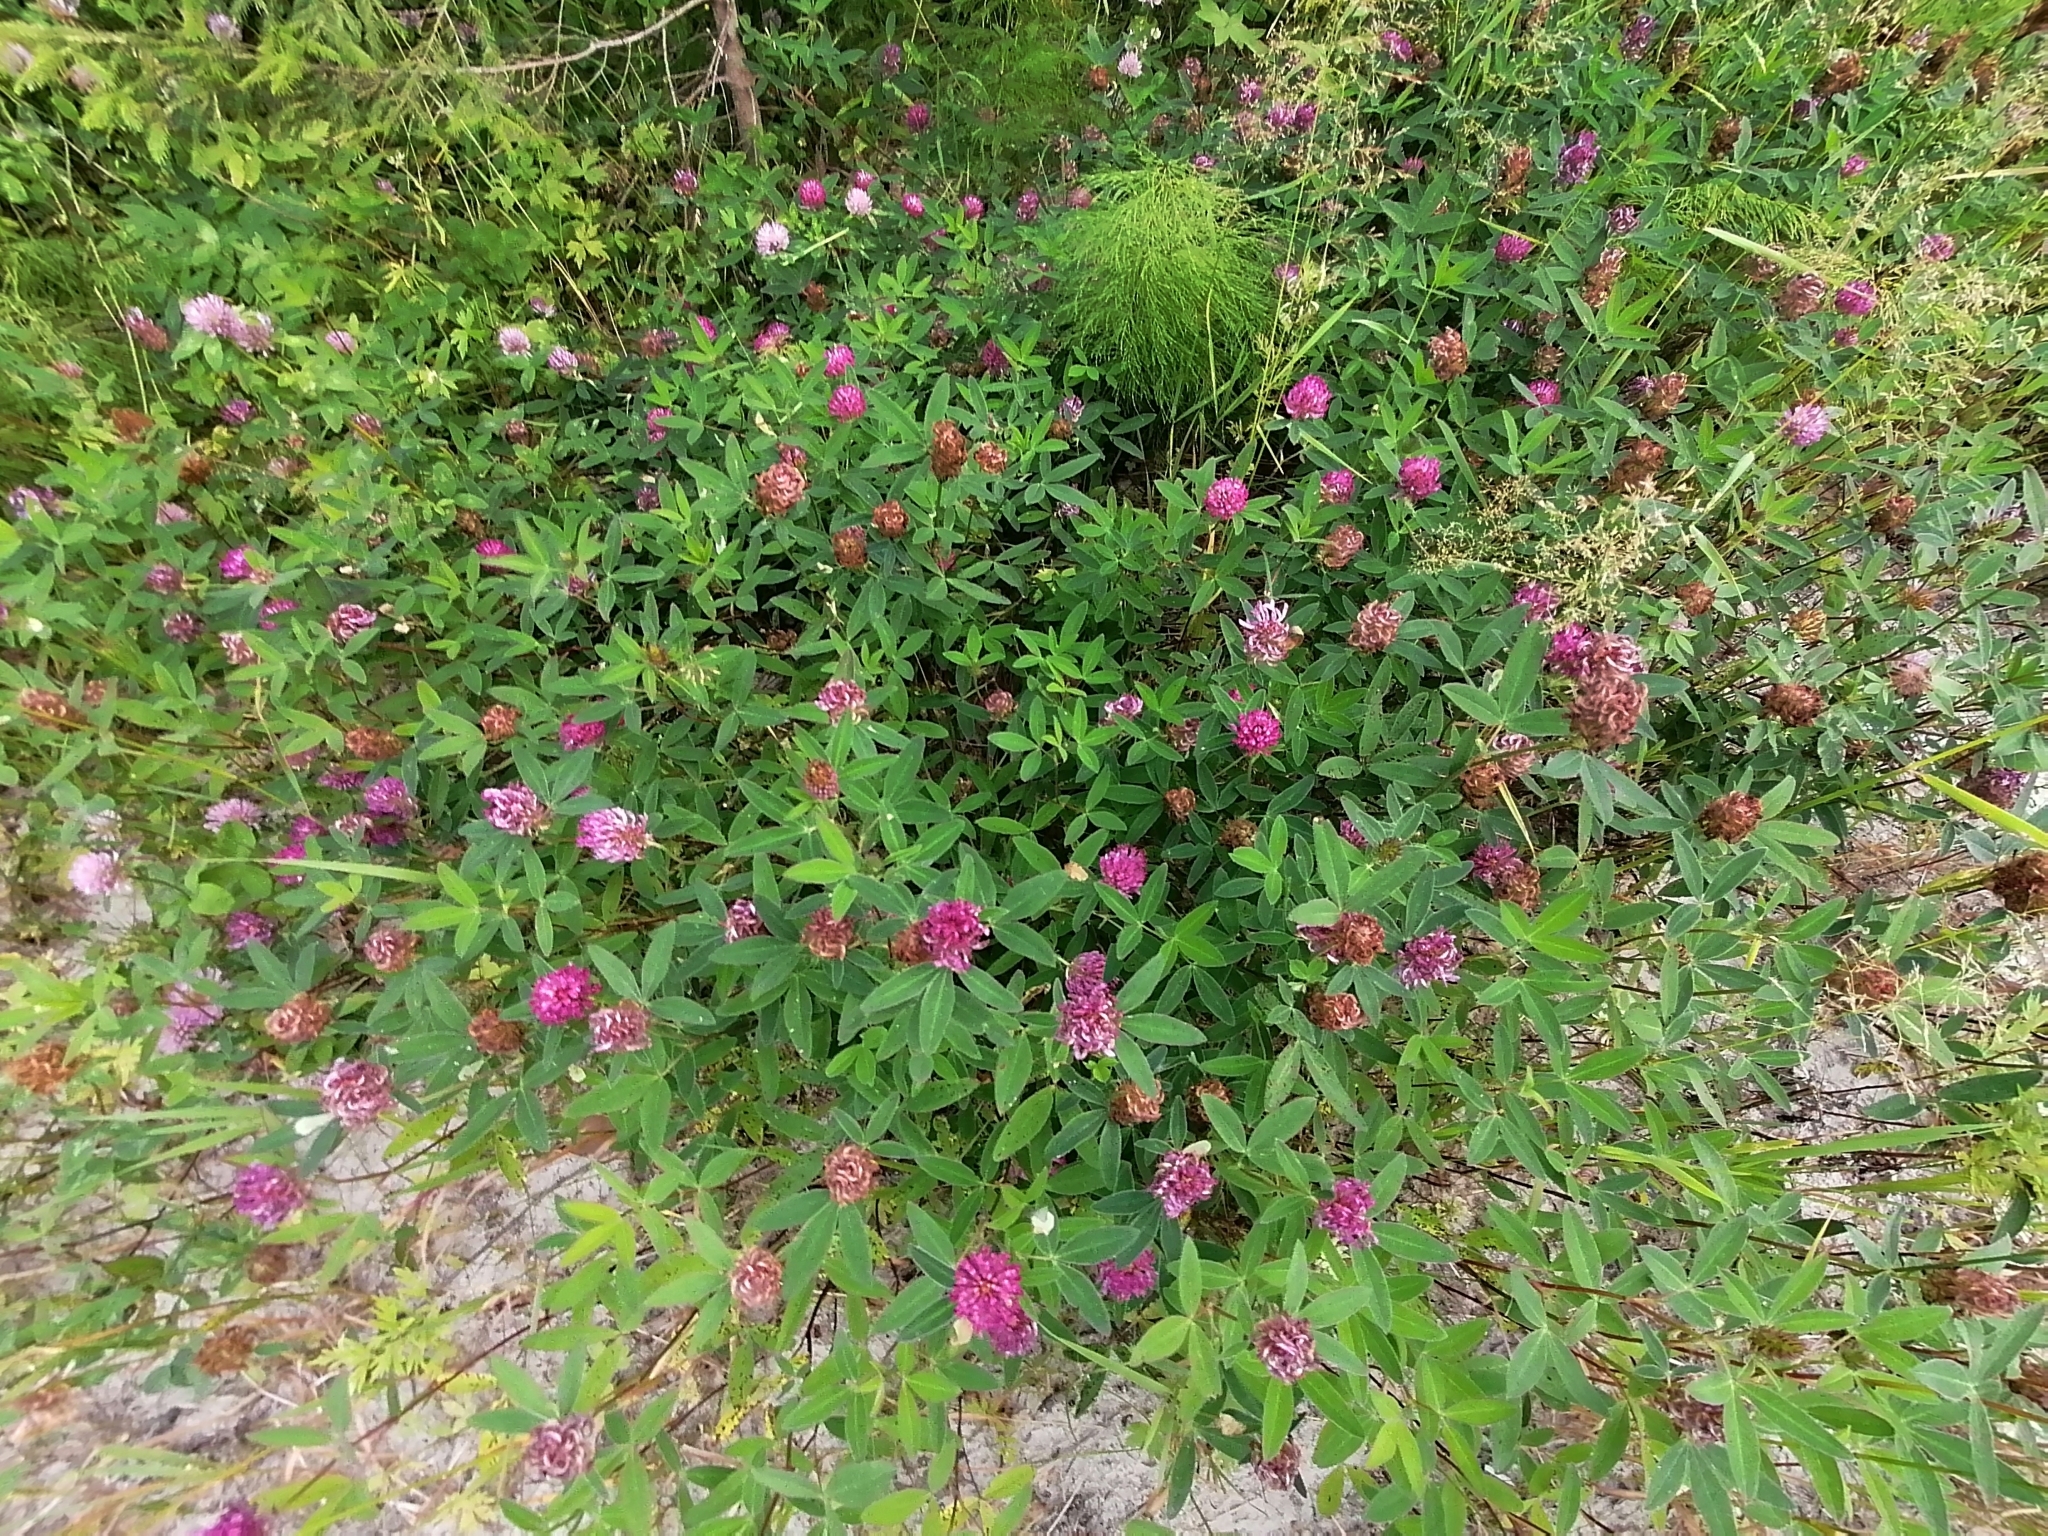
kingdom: Plantae
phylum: Tracheophyta
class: Magnoliopsida
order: Fabales
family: Fabaceae
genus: Trifolium
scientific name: Trifolium medium
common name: Zigzag clover
